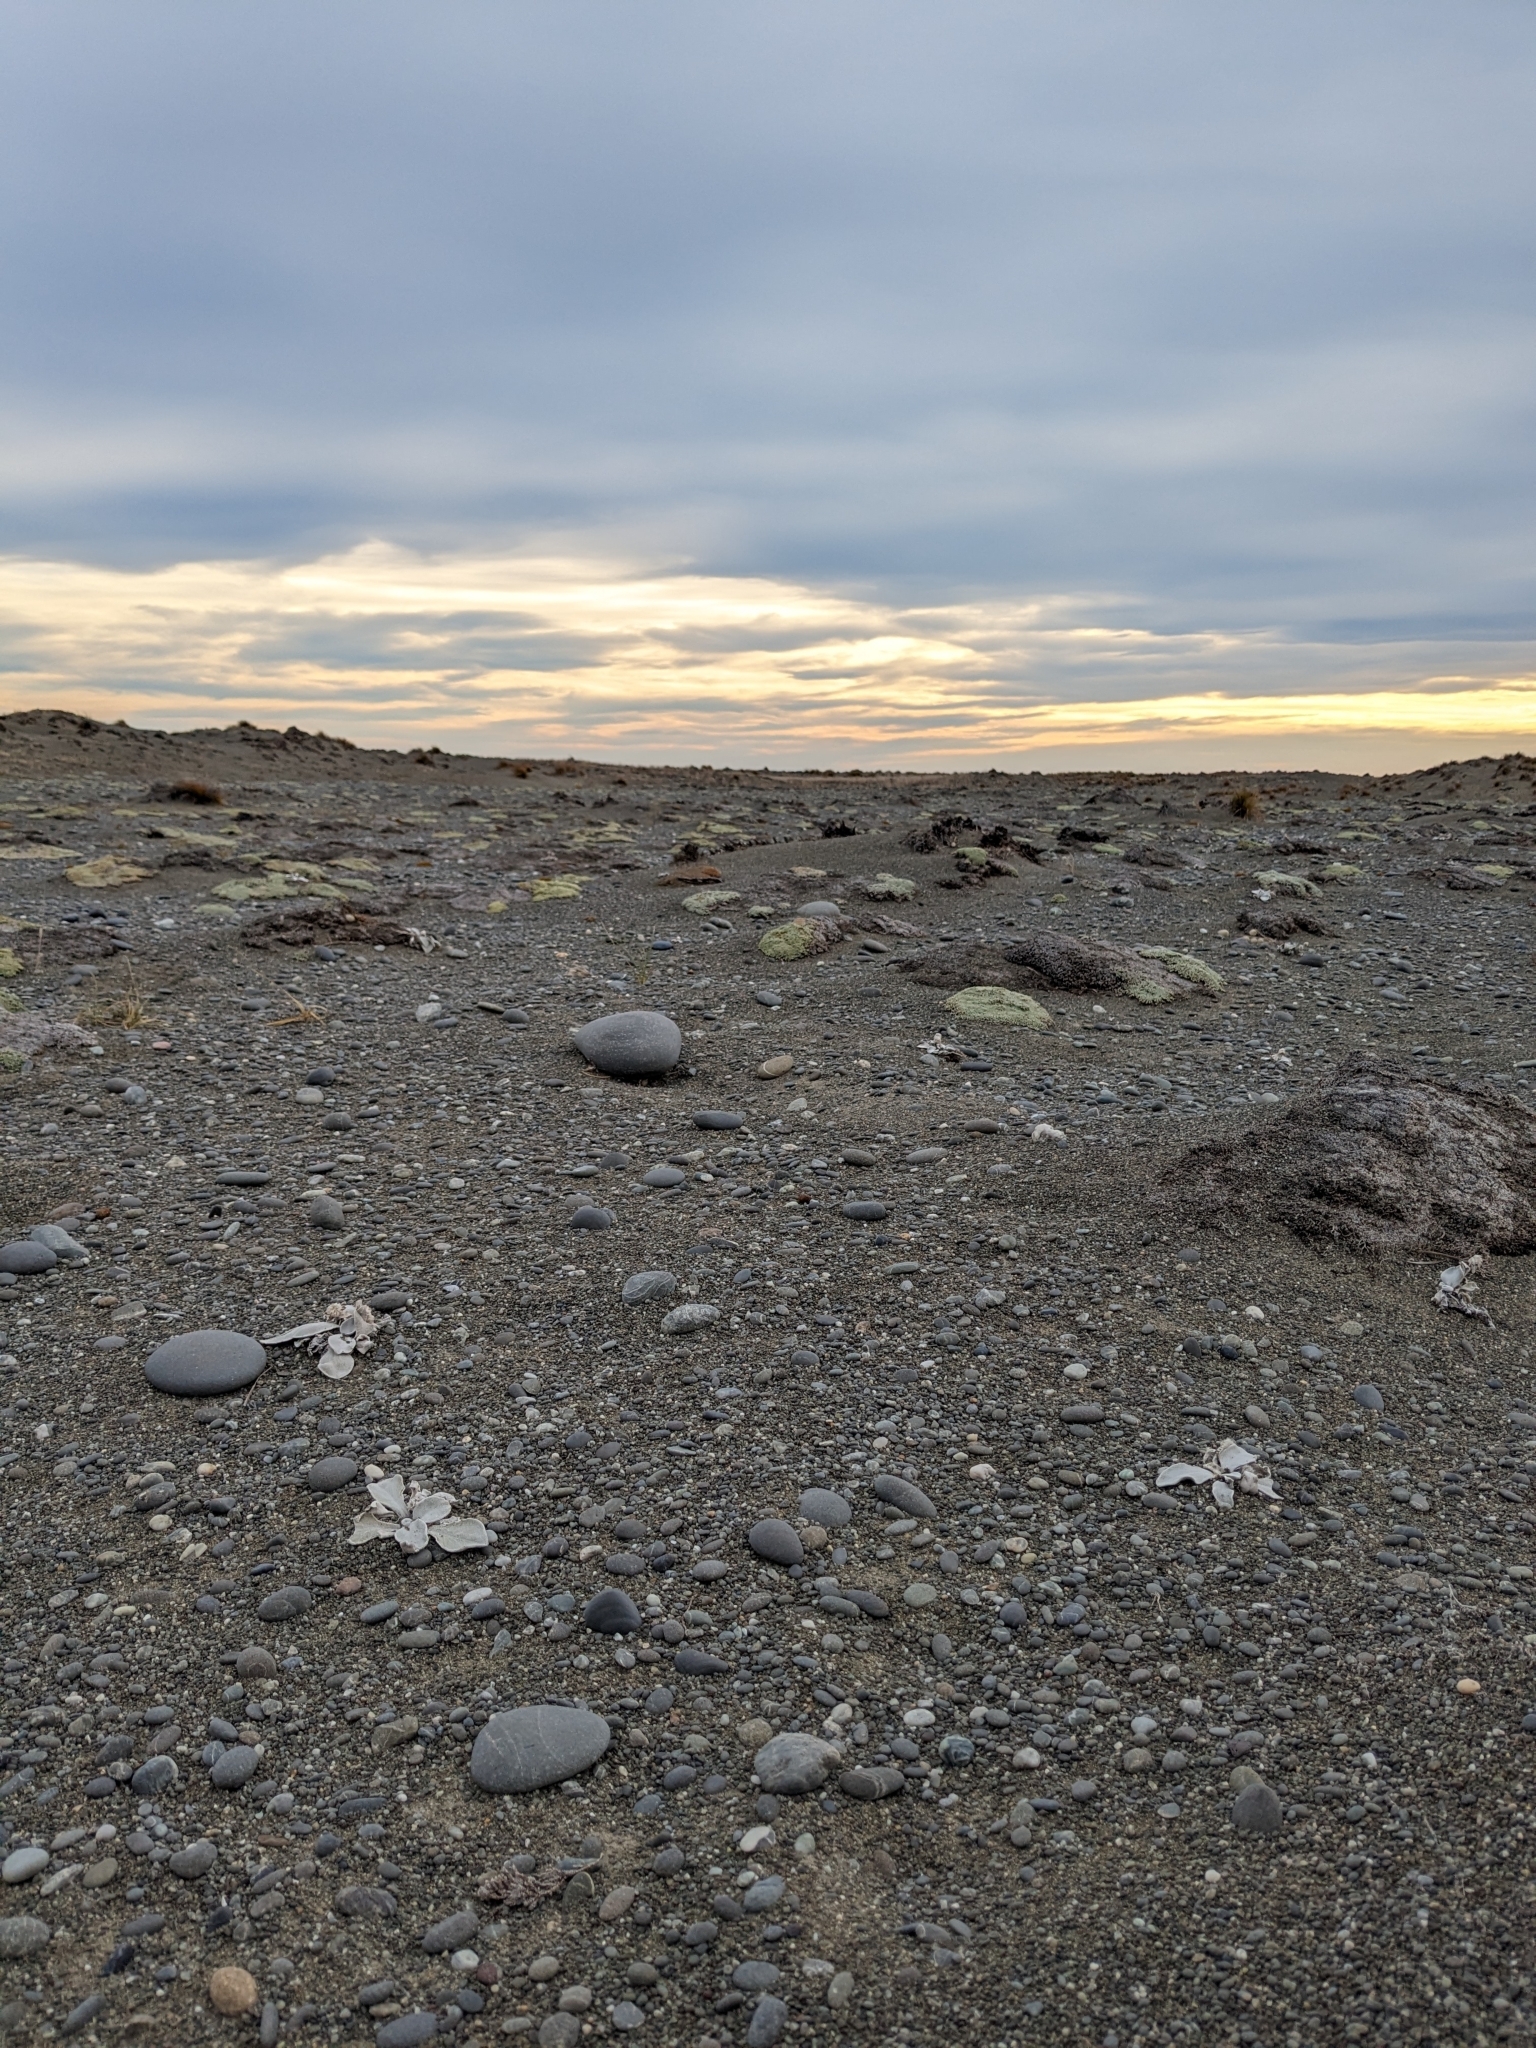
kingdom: Plantae
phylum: Tracheophyta
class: Magnoliopsida
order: Asterales
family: Asteraceae
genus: Craspedia
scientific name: Craspedia
